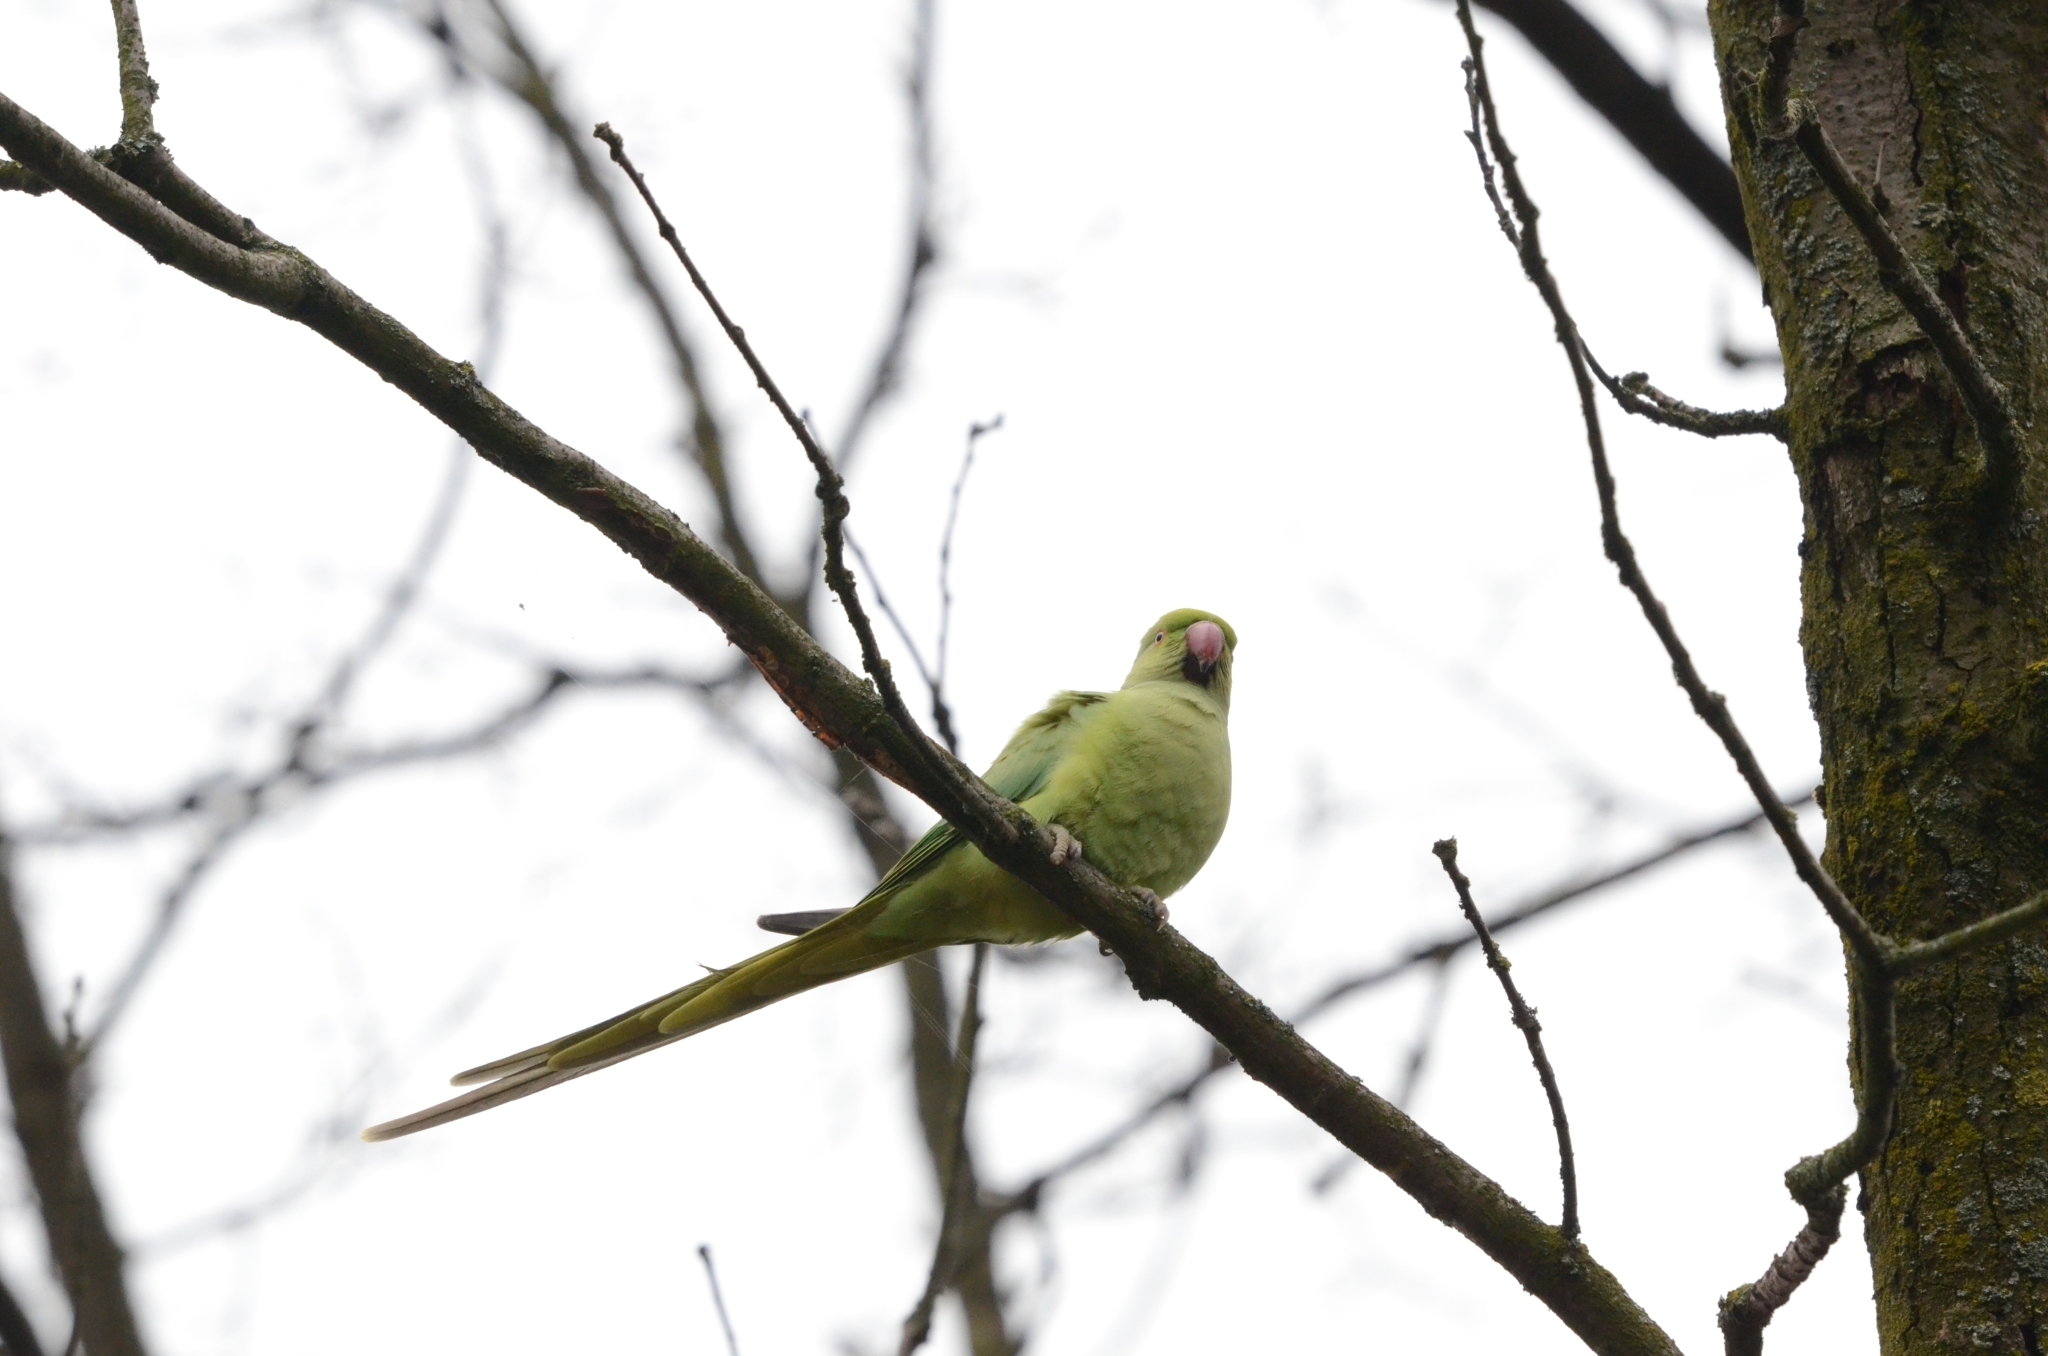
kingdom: Animalia
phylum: Chordata
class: Aves
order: Psittaciformes
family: Psittacidae
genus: Psittacula
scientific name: Psittacula krameri
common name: Rose-ringed parakeet
